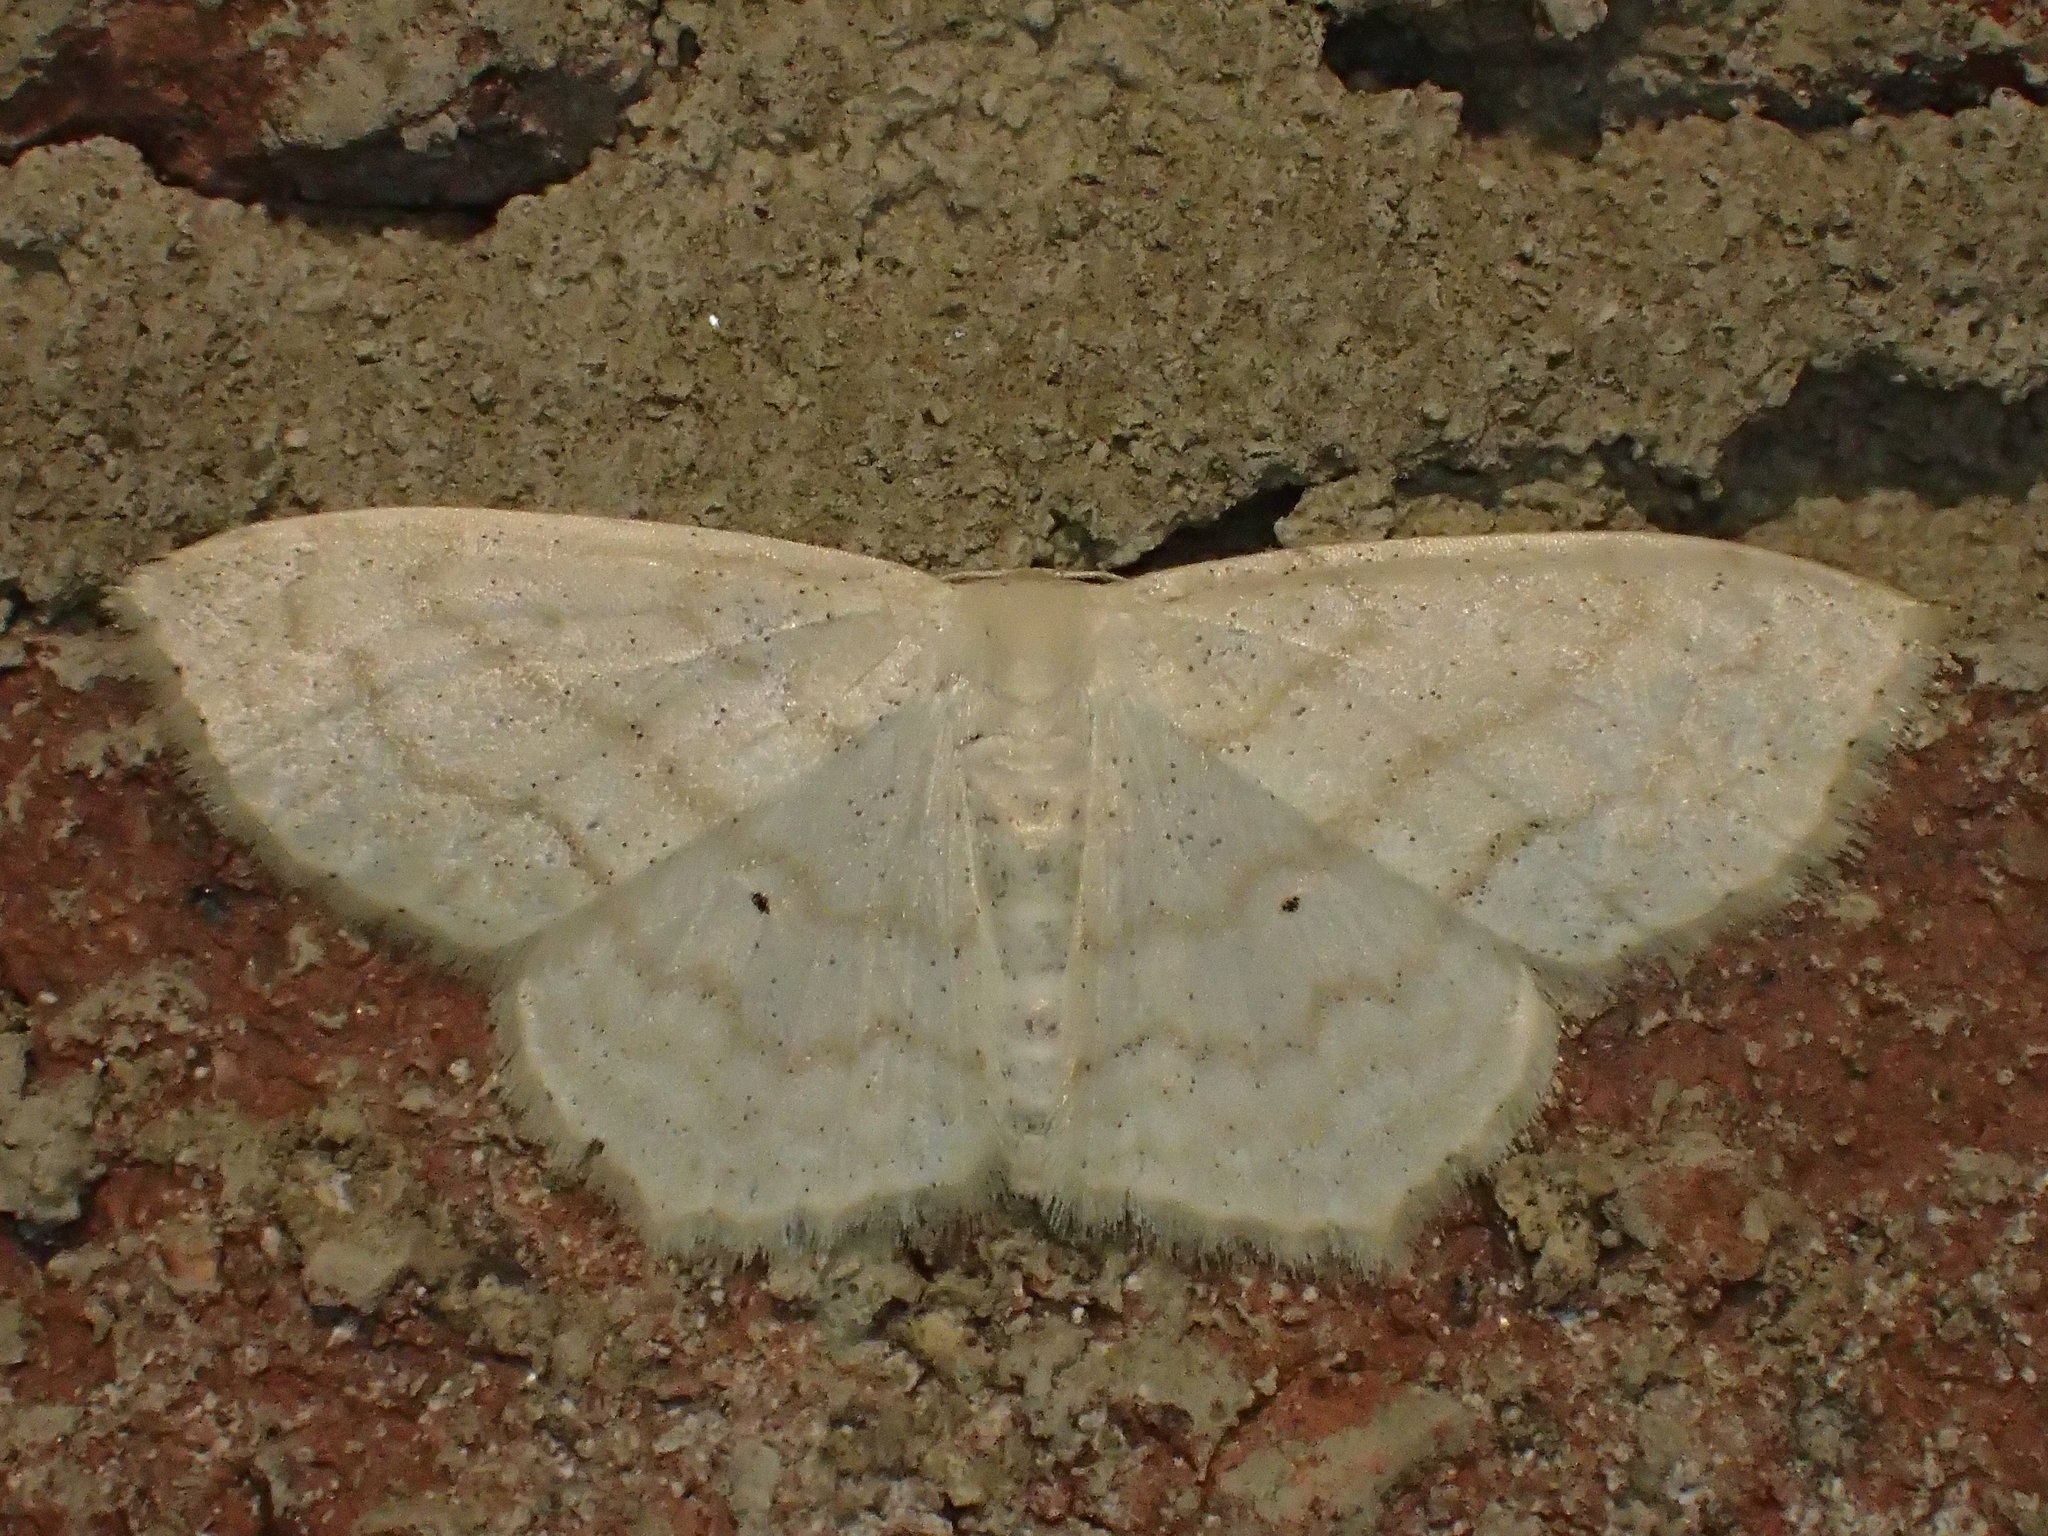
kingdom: Animalia
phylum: Arthropoda
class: Insecta
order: Lepidoptera
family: Geometridae
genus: Scopula
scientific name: Scopula limboundata
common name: Large lace border
